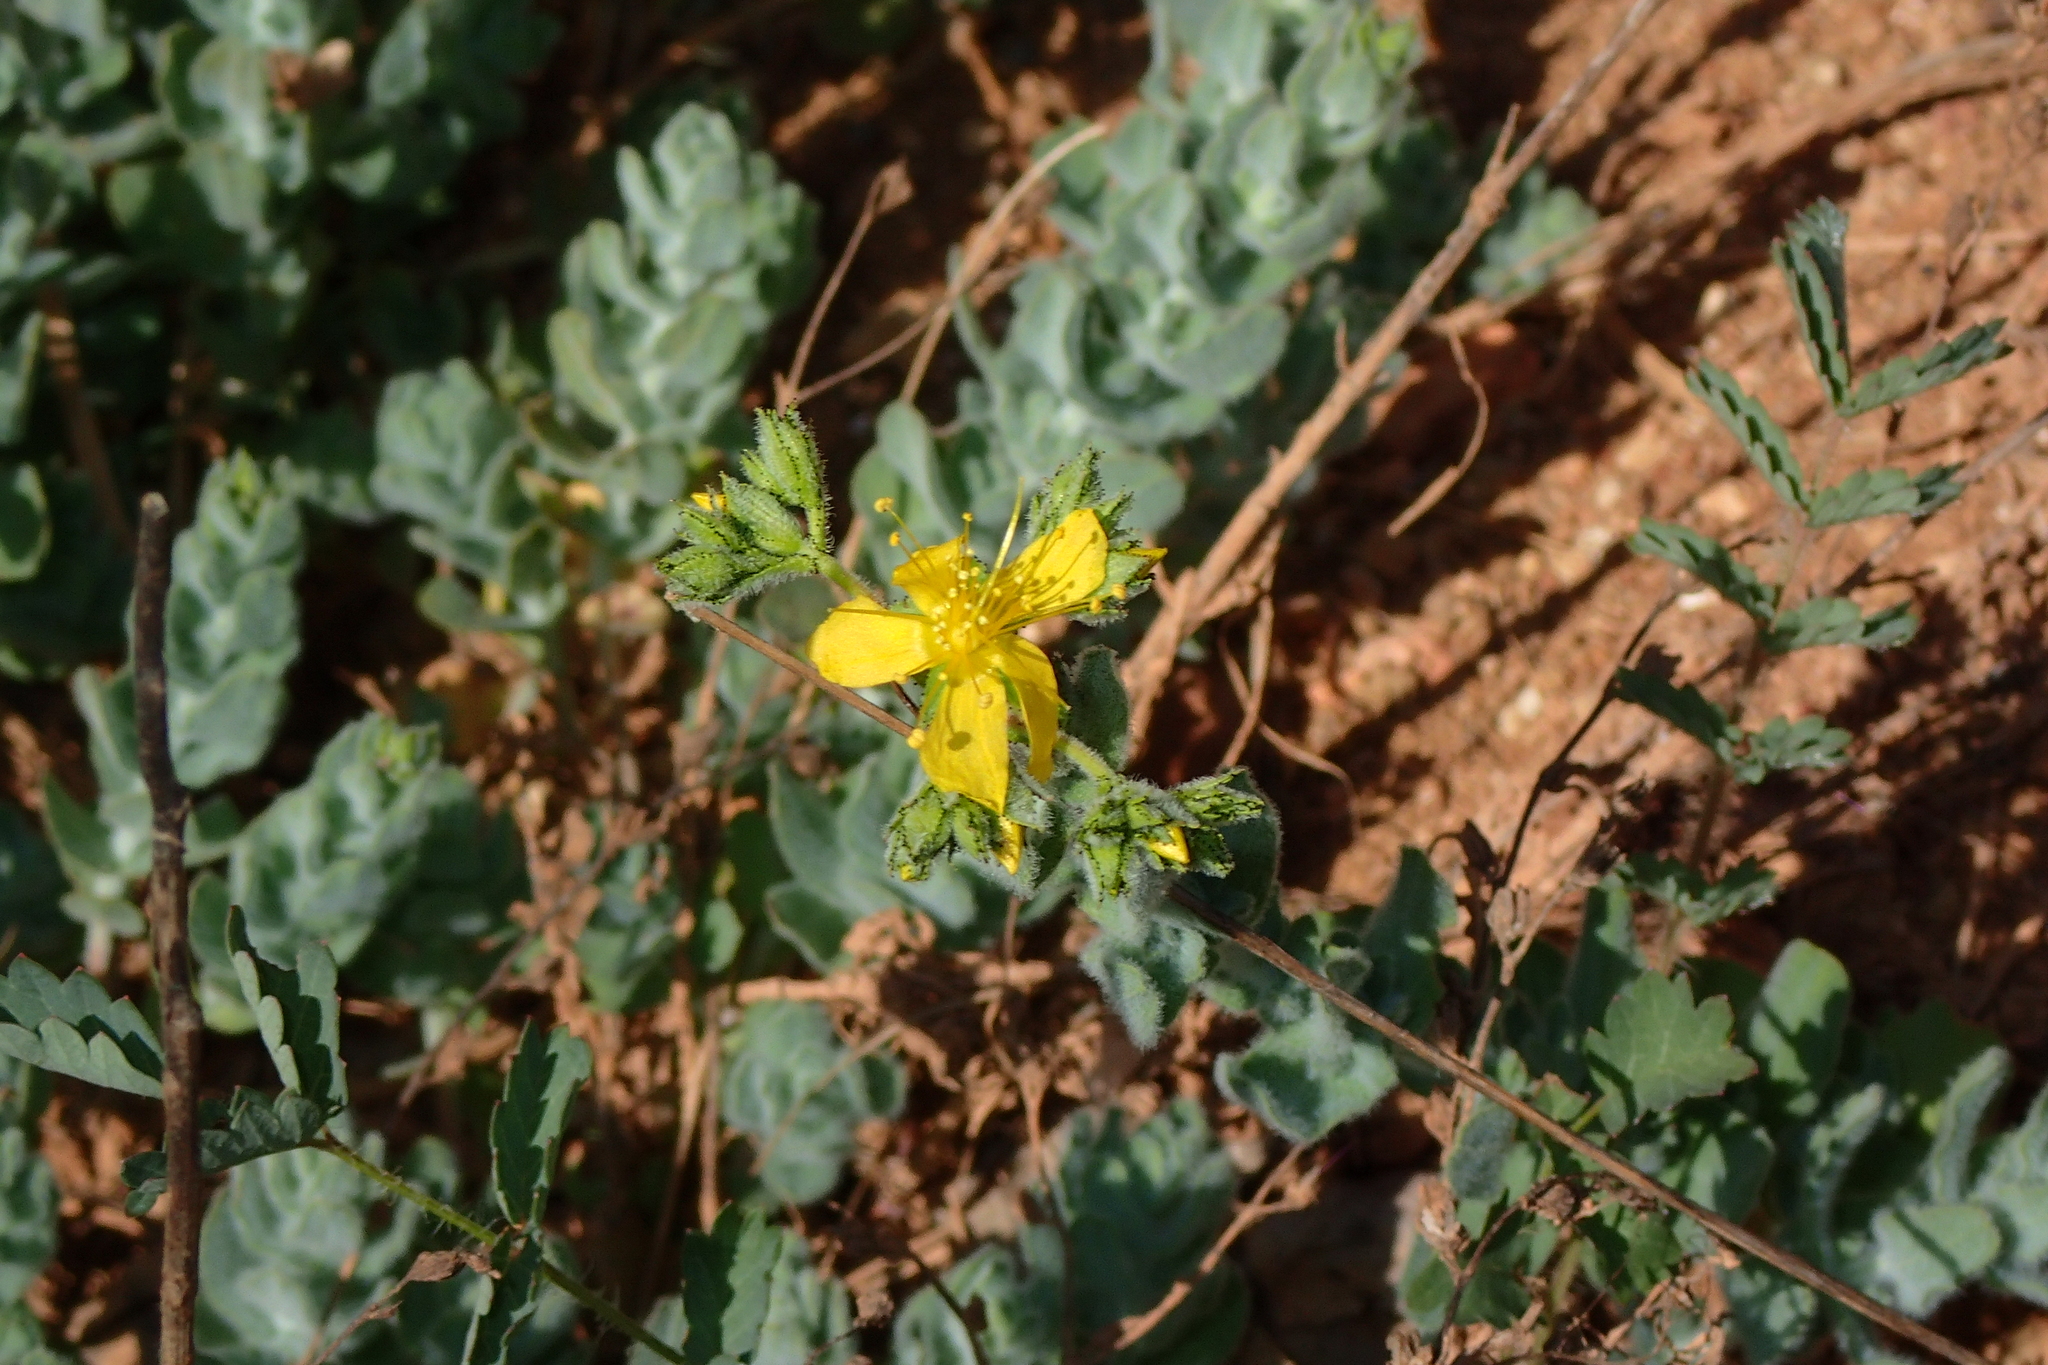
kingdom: Plantae
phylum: Tracheophyta
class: Magnoliopsida
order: Malpighiales
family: Hypericaceae
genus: Hypericum
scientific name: Hypericum tomentosum
